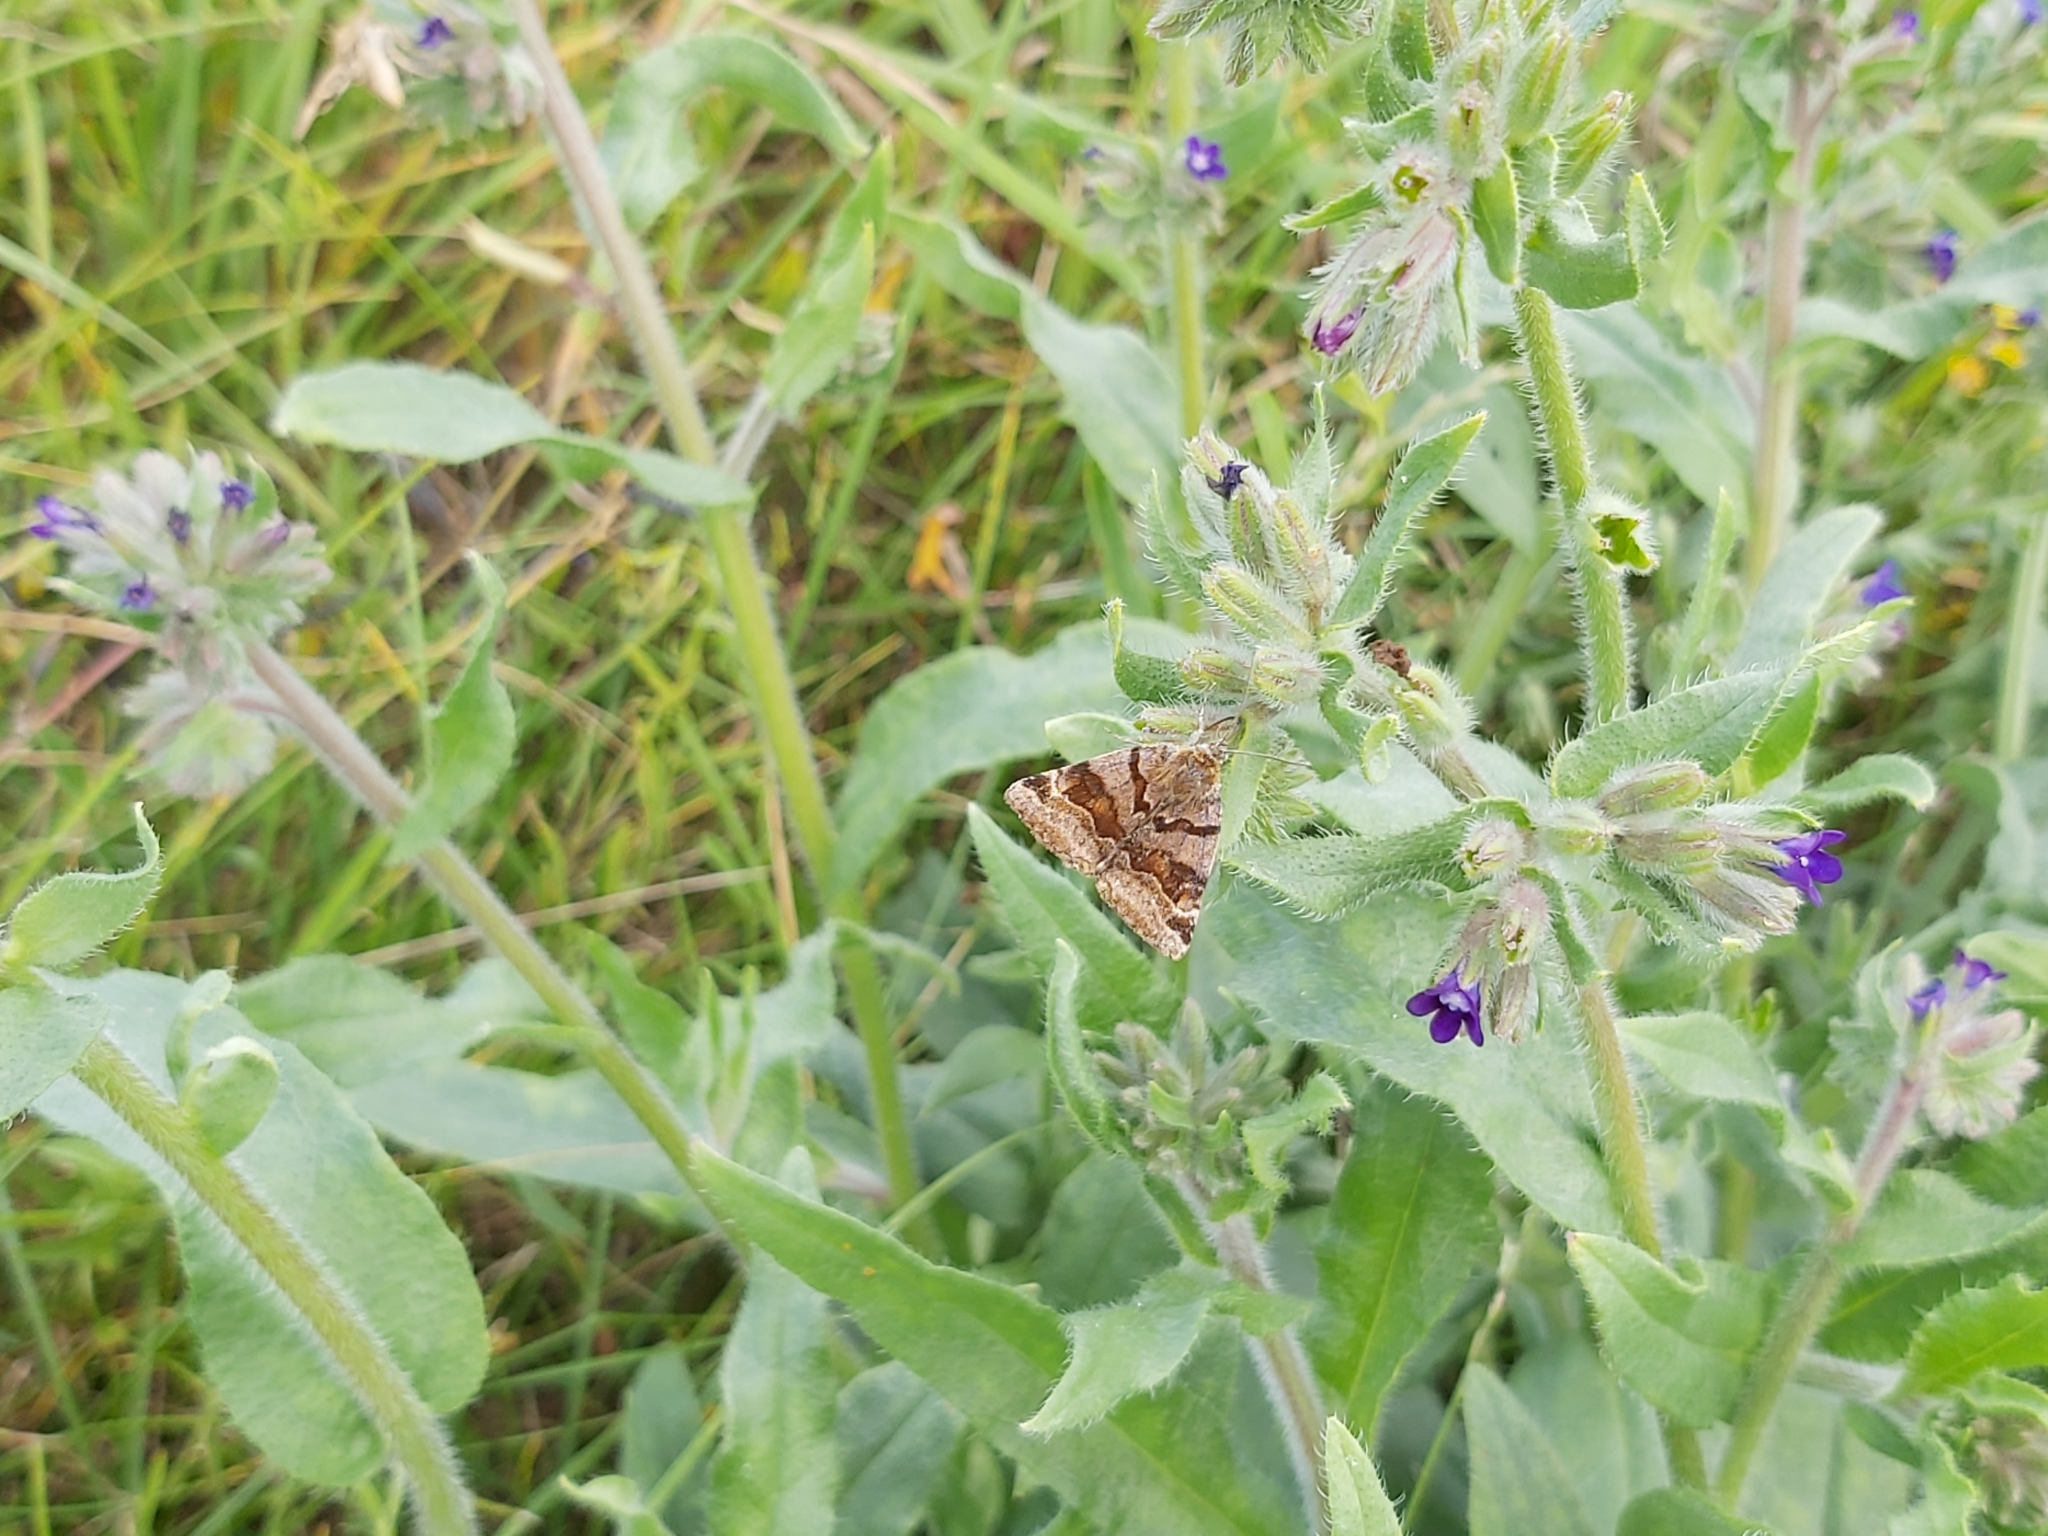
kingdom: Animalia
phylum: Arthropoda
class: Insecta
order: Lepidoptera
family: Erebidae
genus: Euclidia
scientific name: Euclidia glyphica
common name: Burnet companion
